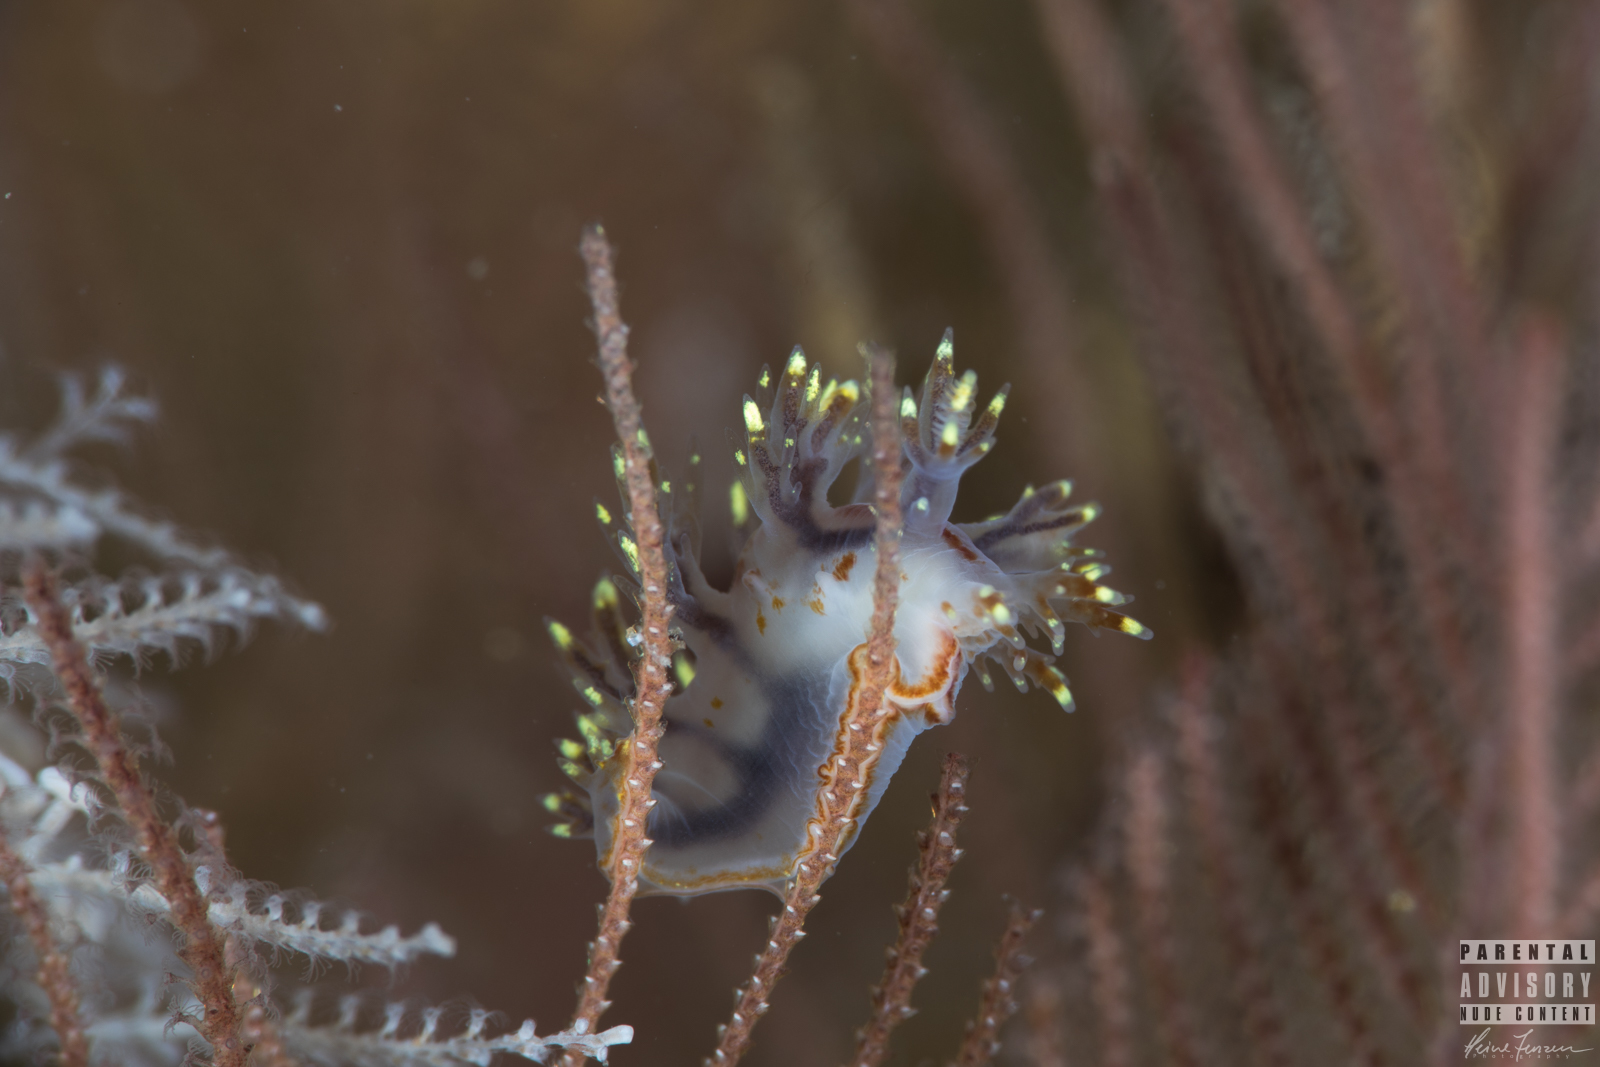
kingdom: Animalia
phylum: Mollusca
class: Gastropoda
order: Nudibranchia
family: Dendronotidae
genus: Dendronotus
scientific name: Dendronotus yrjargul
